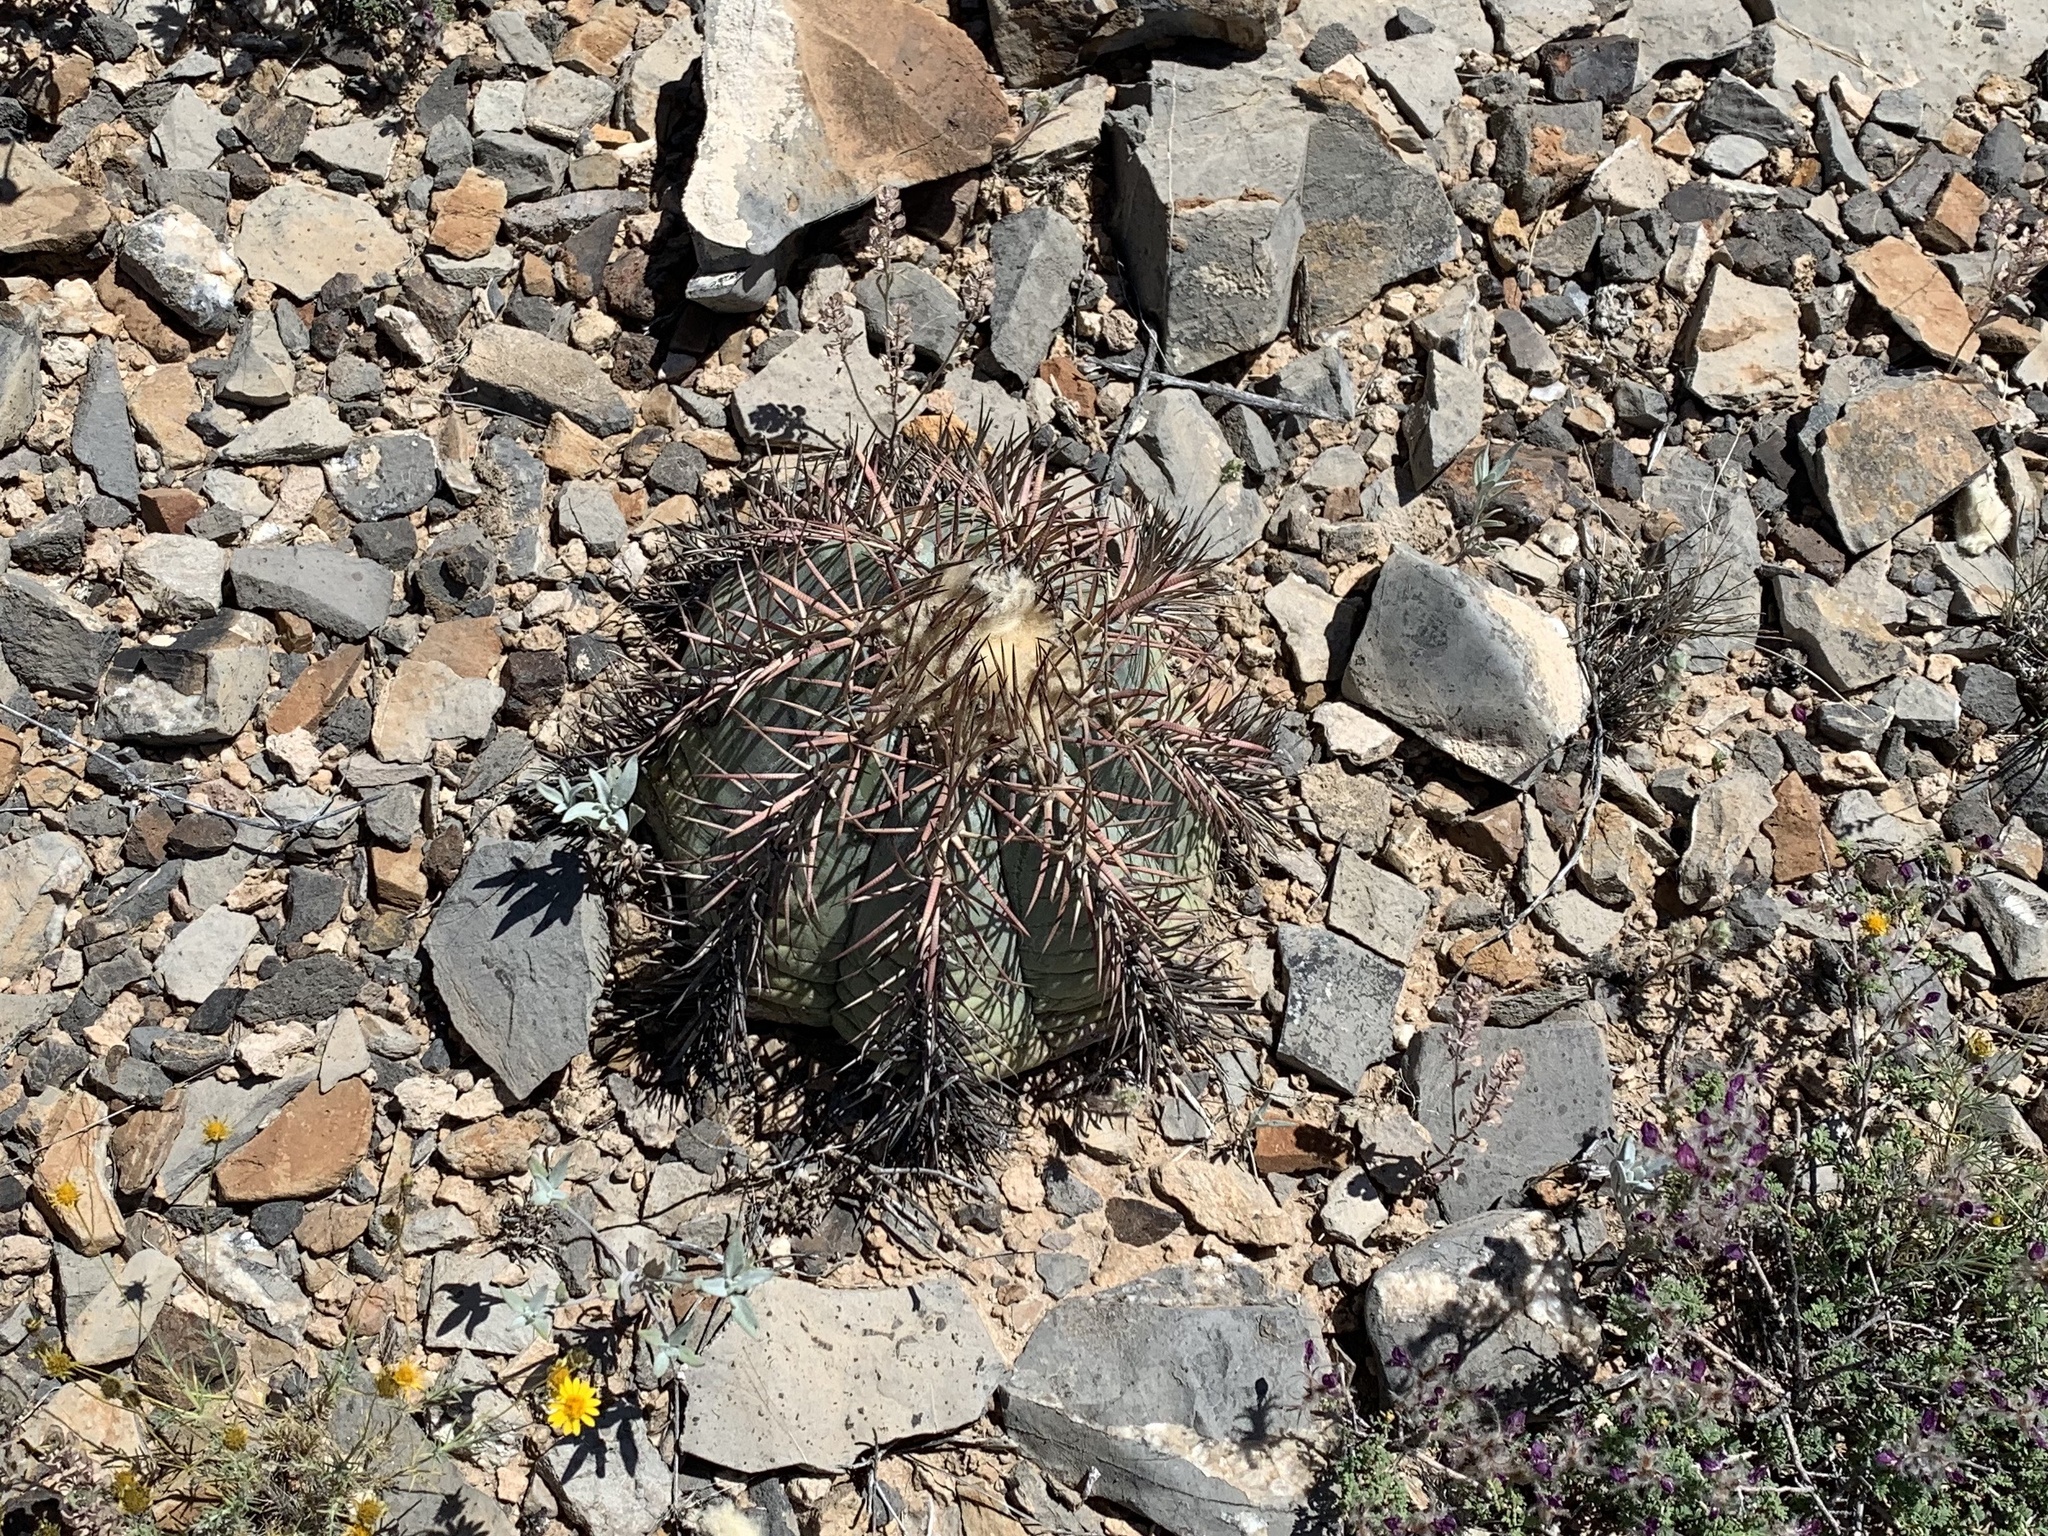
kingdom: Plantae
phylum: Tracheophyta
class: Magnoliopsida
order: Caryophyllales
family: Cactaceae
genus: Echinocactus
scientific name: Echinocactus horizonthalonius
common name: Devilshead
